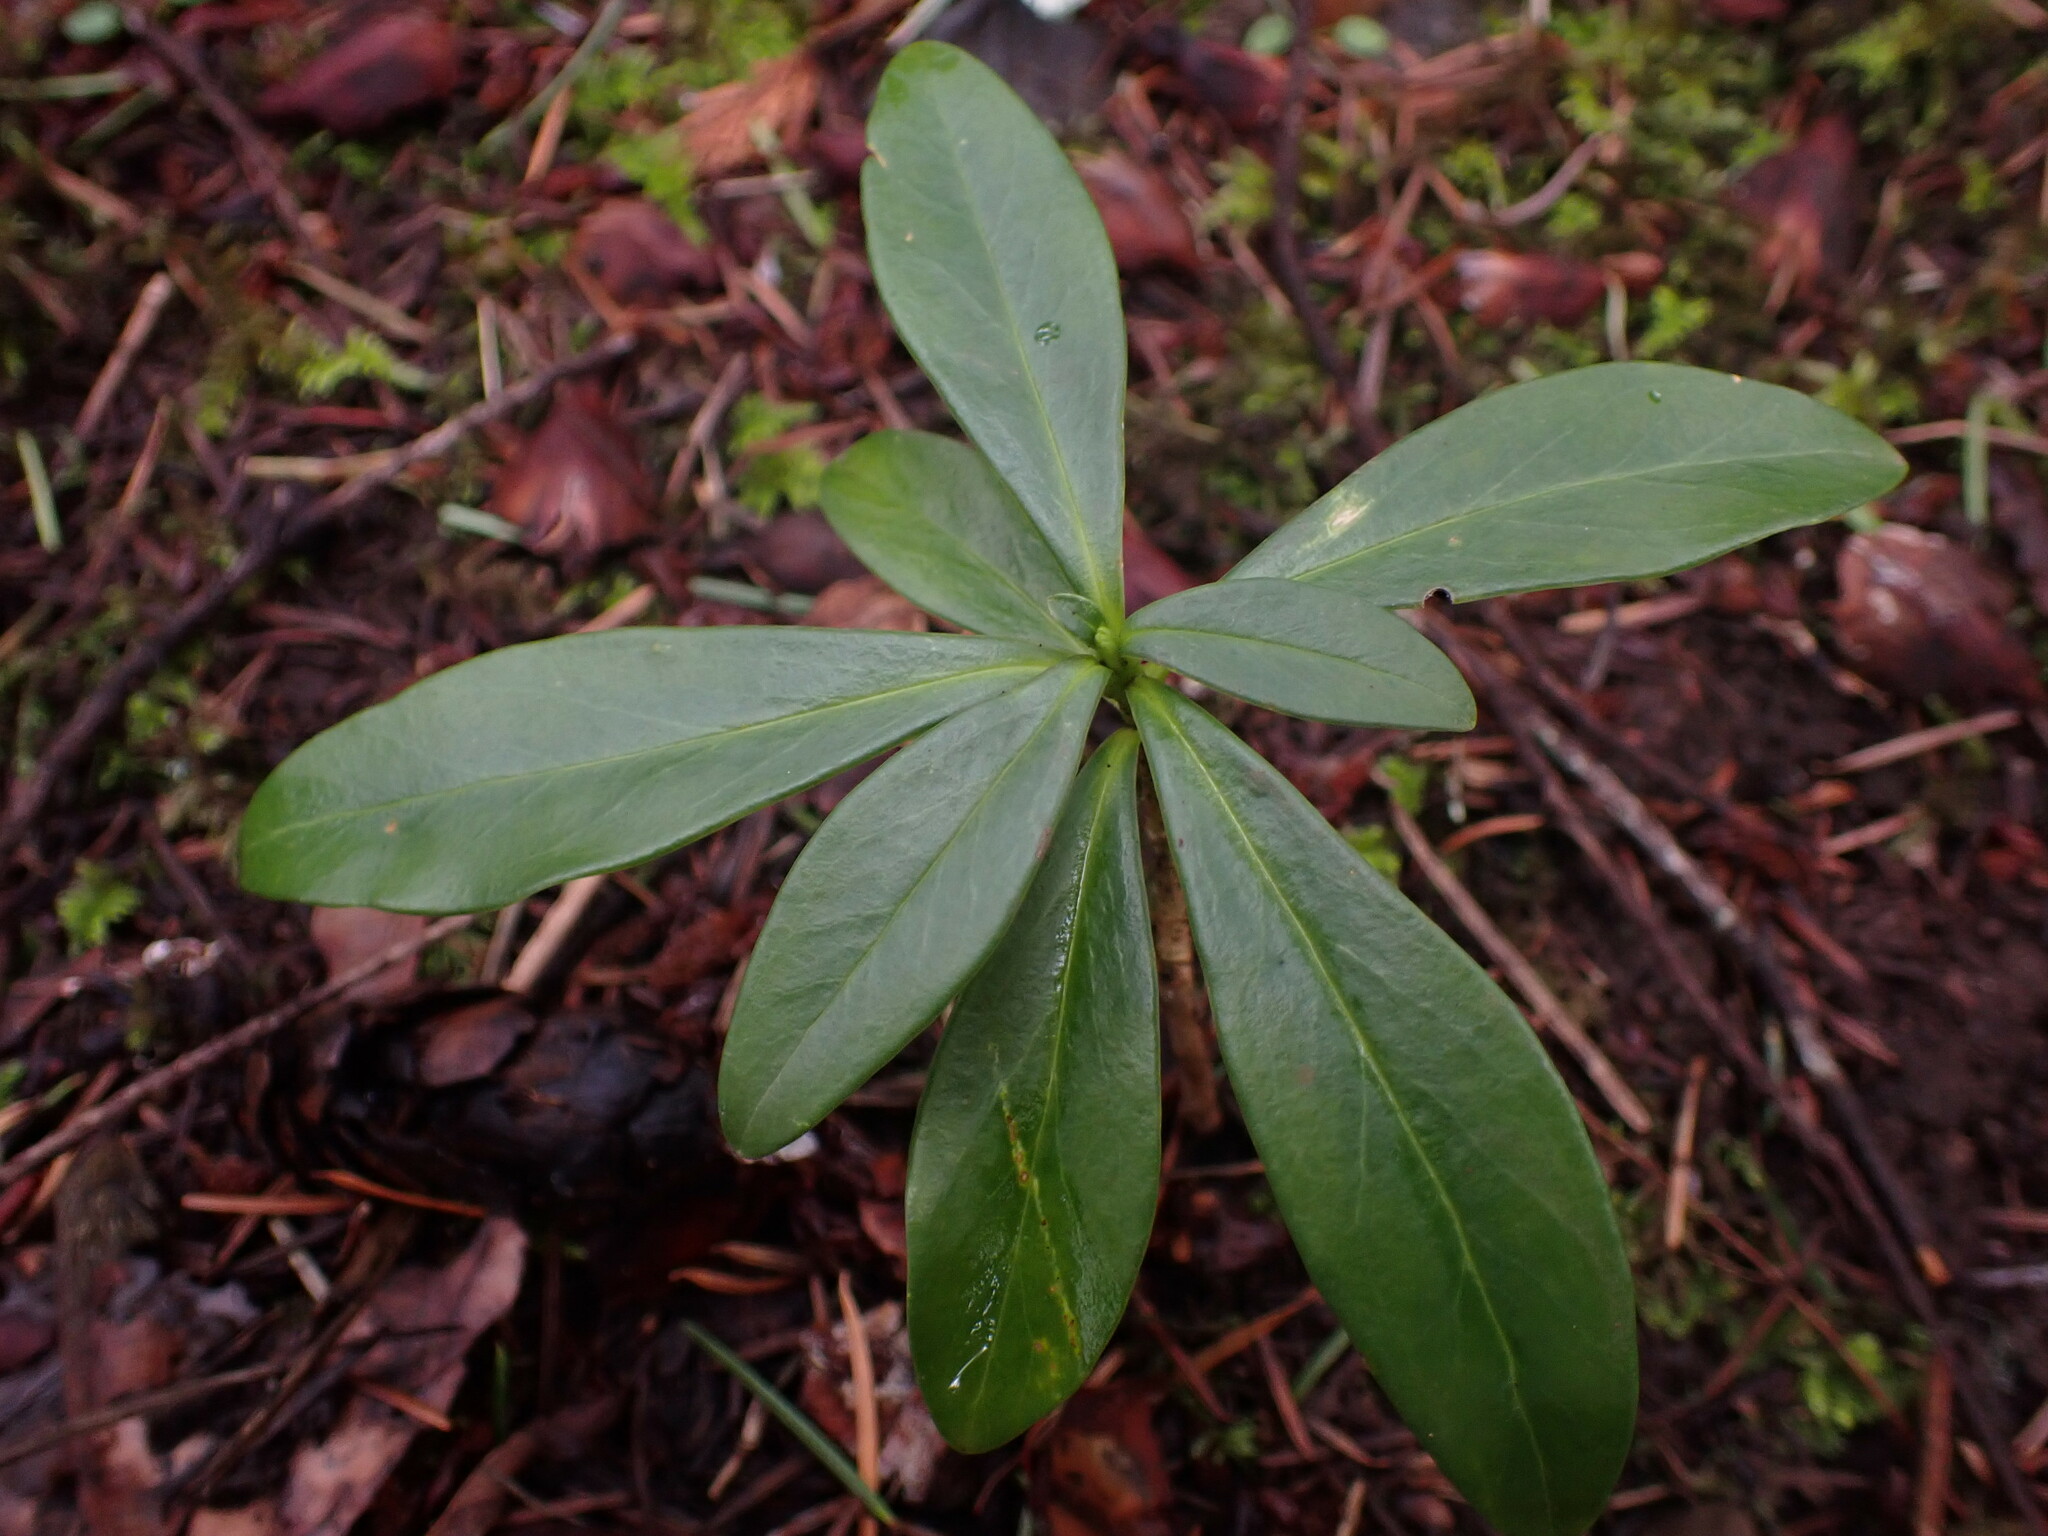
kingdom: Plantae
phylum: Tracheophyta
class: Magnoliopsida
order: Malvales
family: Thymelaeaceae
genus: Daphne
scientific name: Daphne laureola
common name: Spurge-laurel
